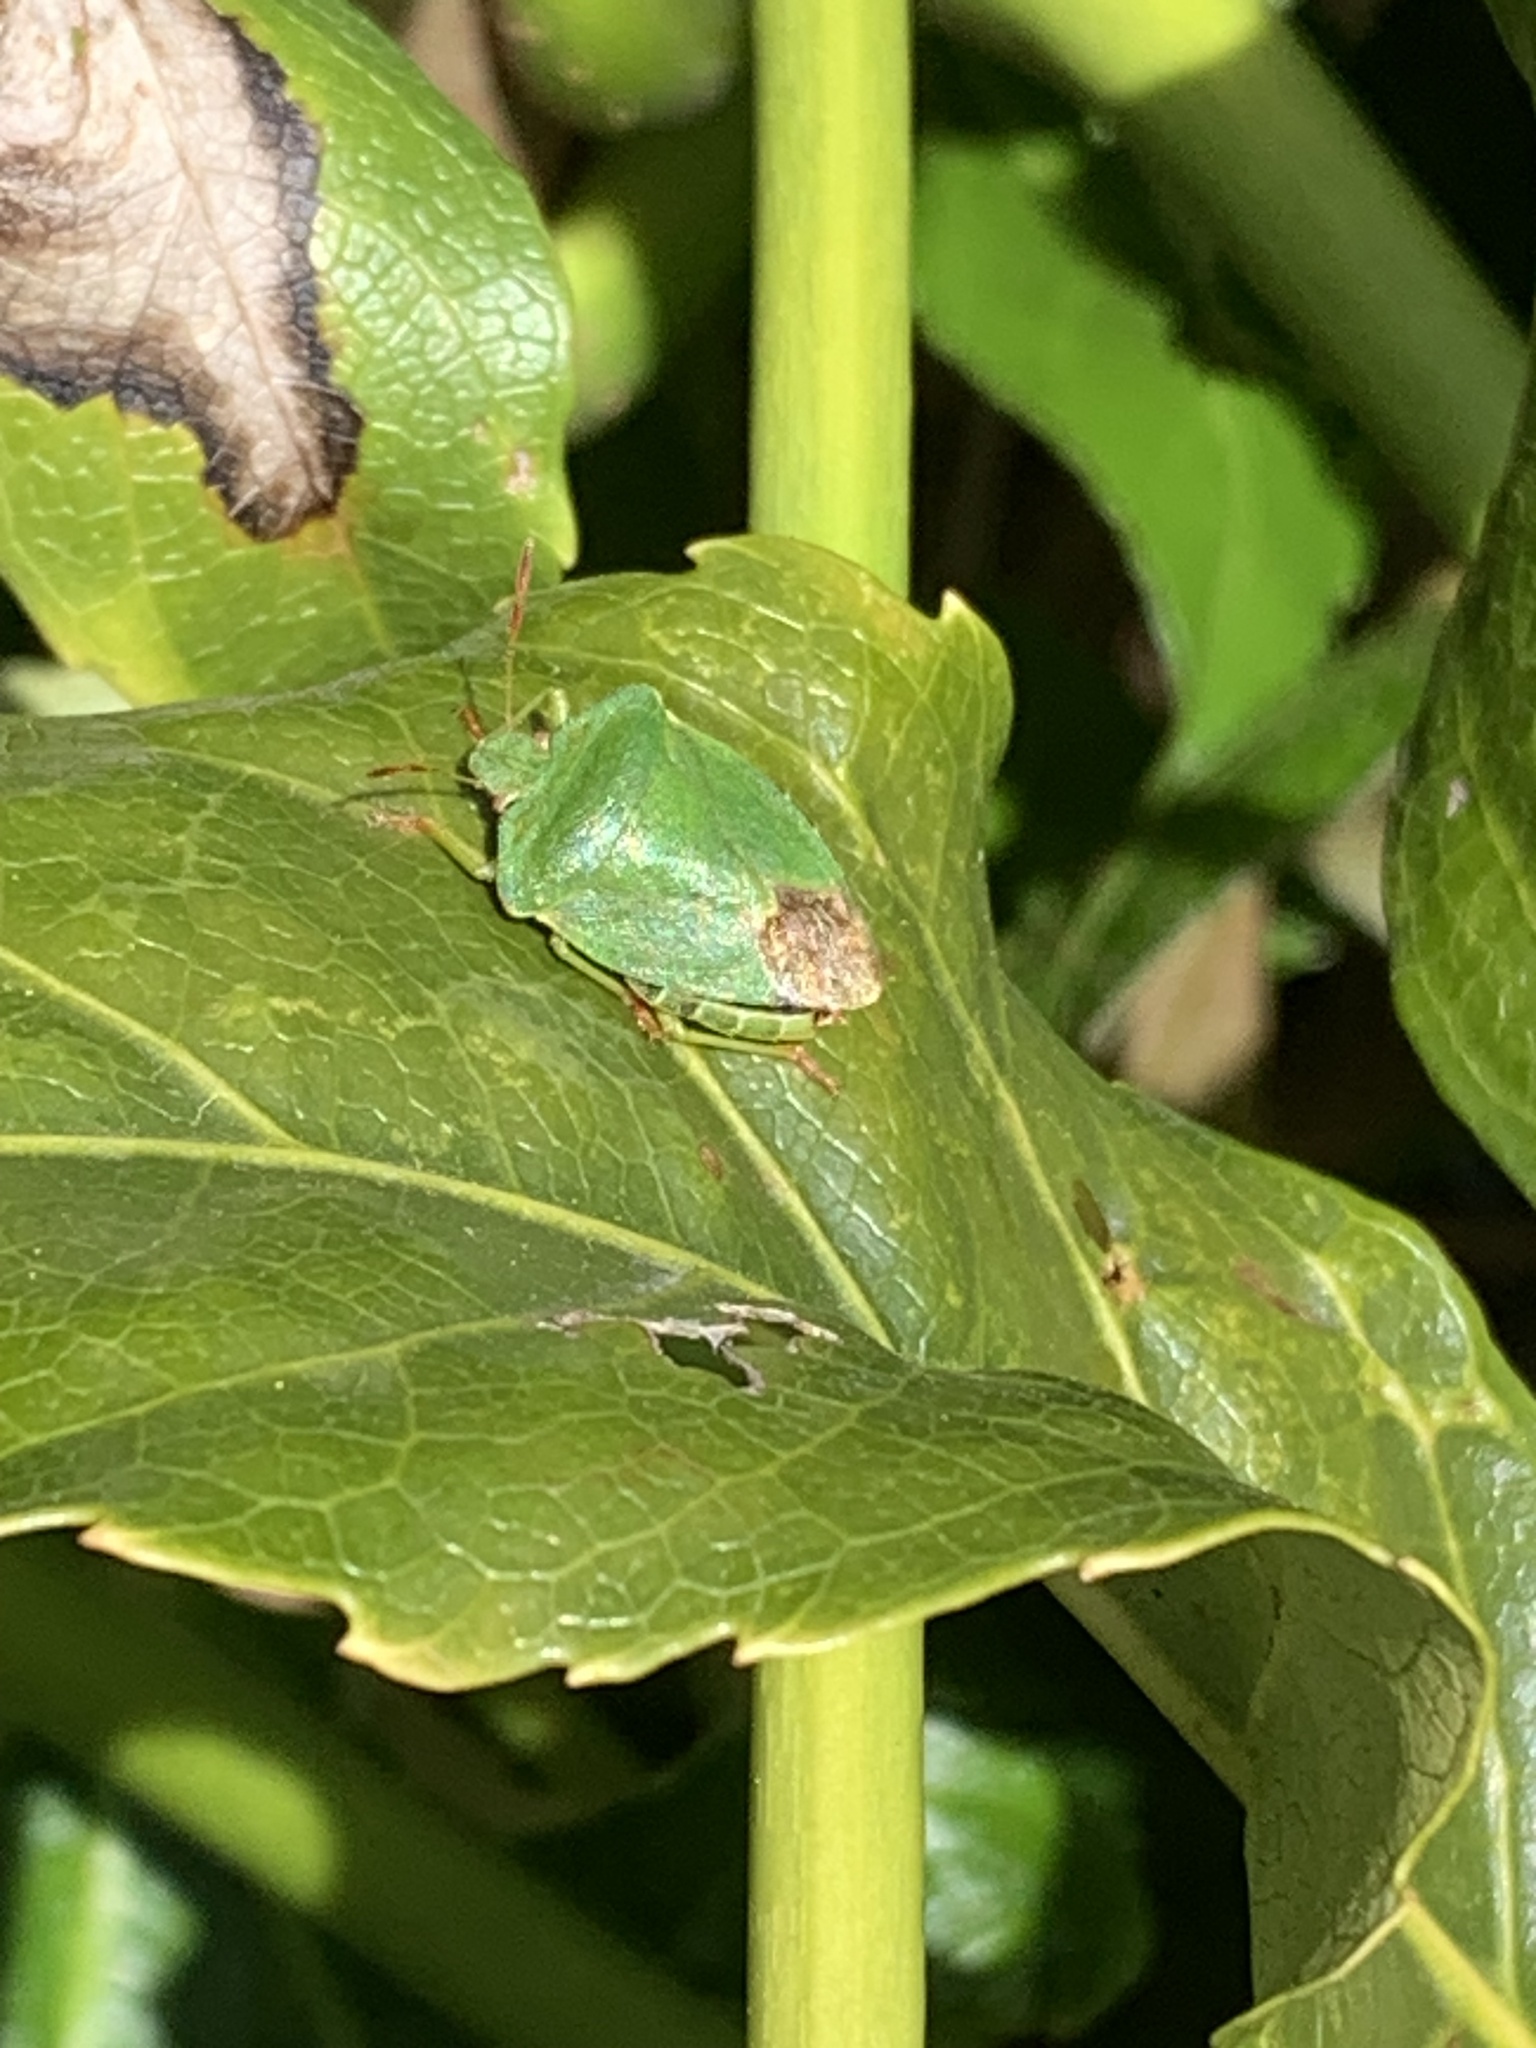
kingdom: Animalia
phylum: Arthropoda
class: Insecta
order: Hemiptera
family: Pentatomidae
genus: Palomena
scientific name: Palomena prasina
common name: Green shieldbug
